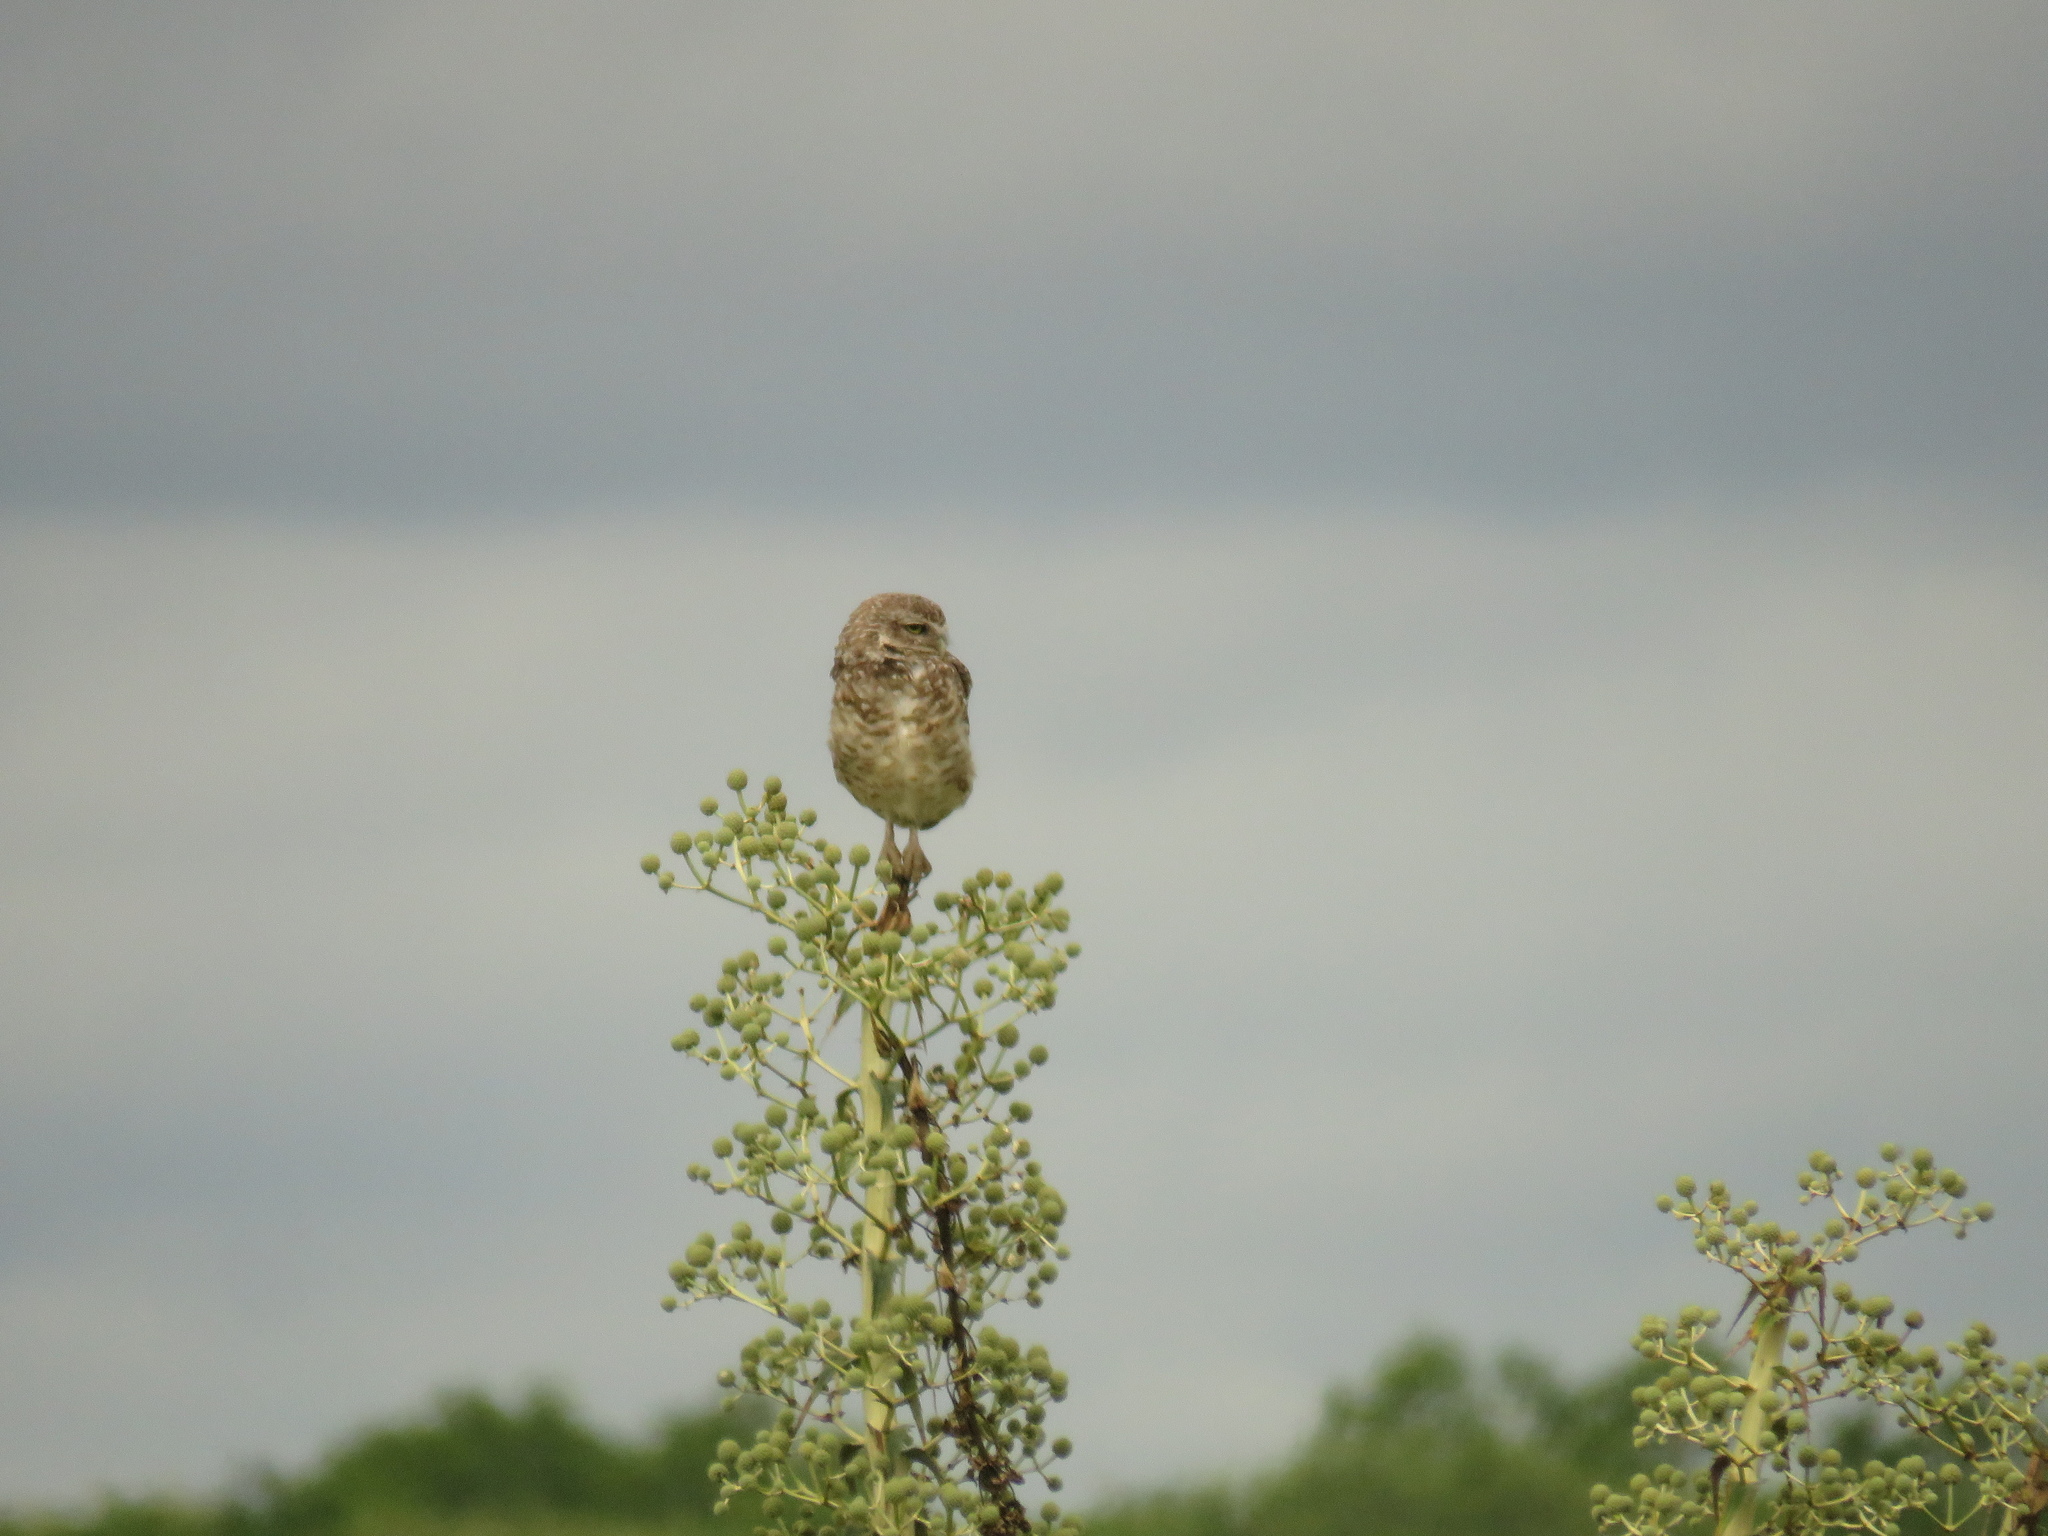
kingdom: Animalia
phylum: Chordata
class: Aves
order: Strigiformes
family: Strigidae
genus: Athene
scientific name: Athene cunicularia
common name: Burrowing owl
